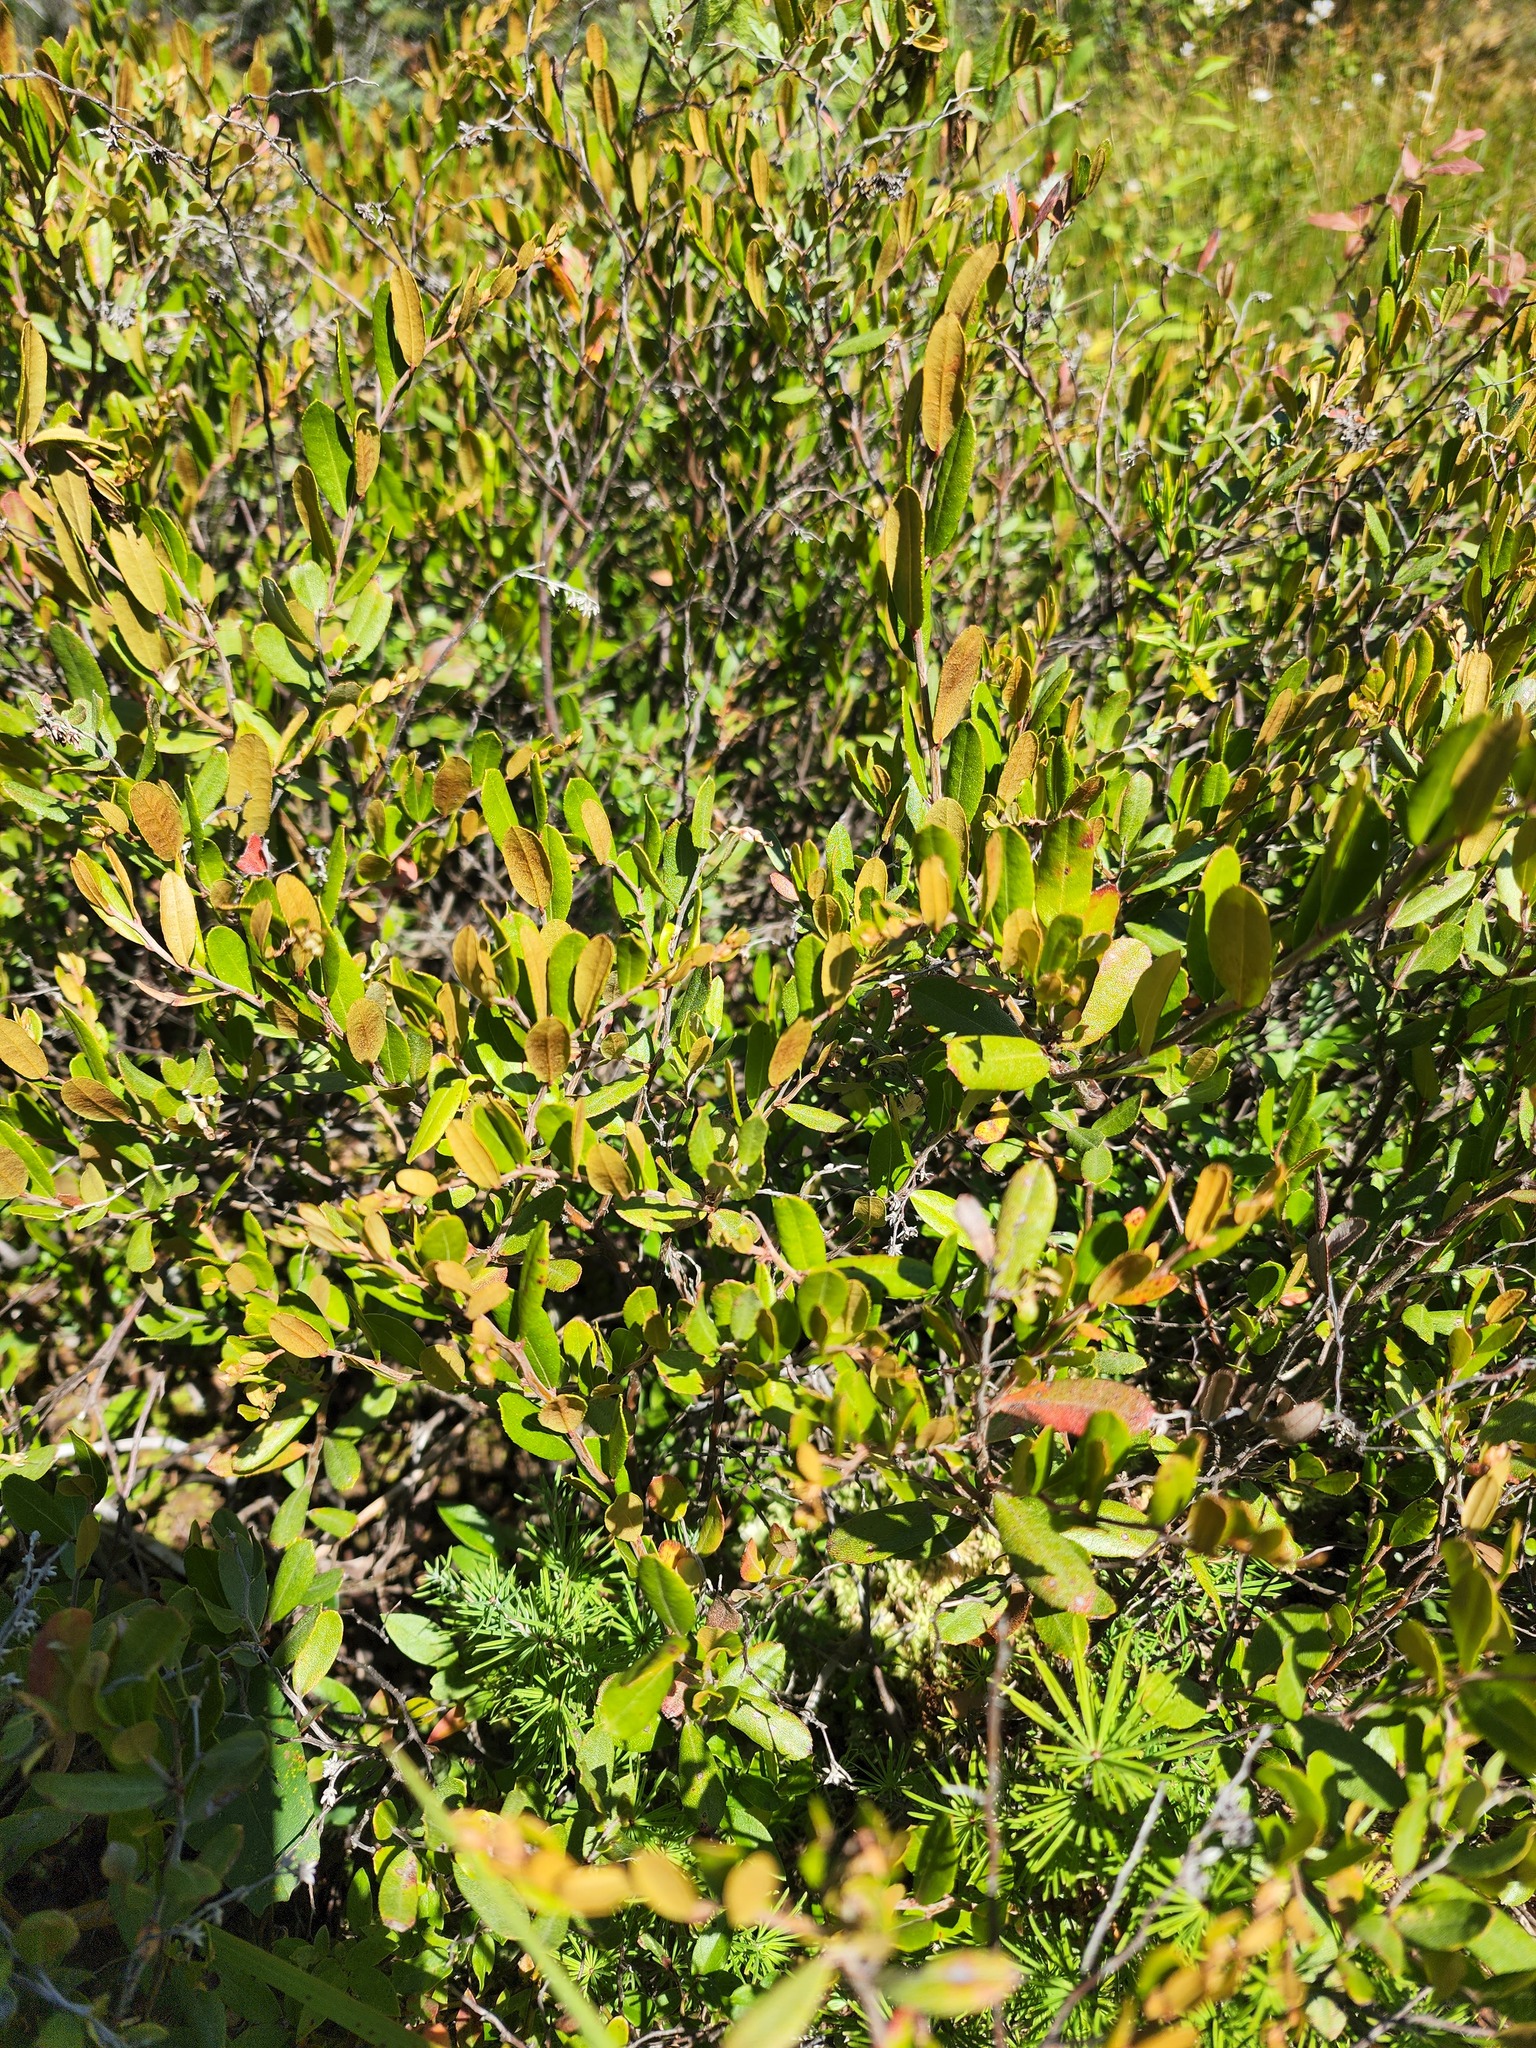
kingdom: Plantae
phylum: Tracheophyta
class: Magnoliopsida
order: Ericales
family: Ericaceae
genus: Chamaedaphne
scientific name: Chamaedaphne calyculata
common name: Leatherleaf
